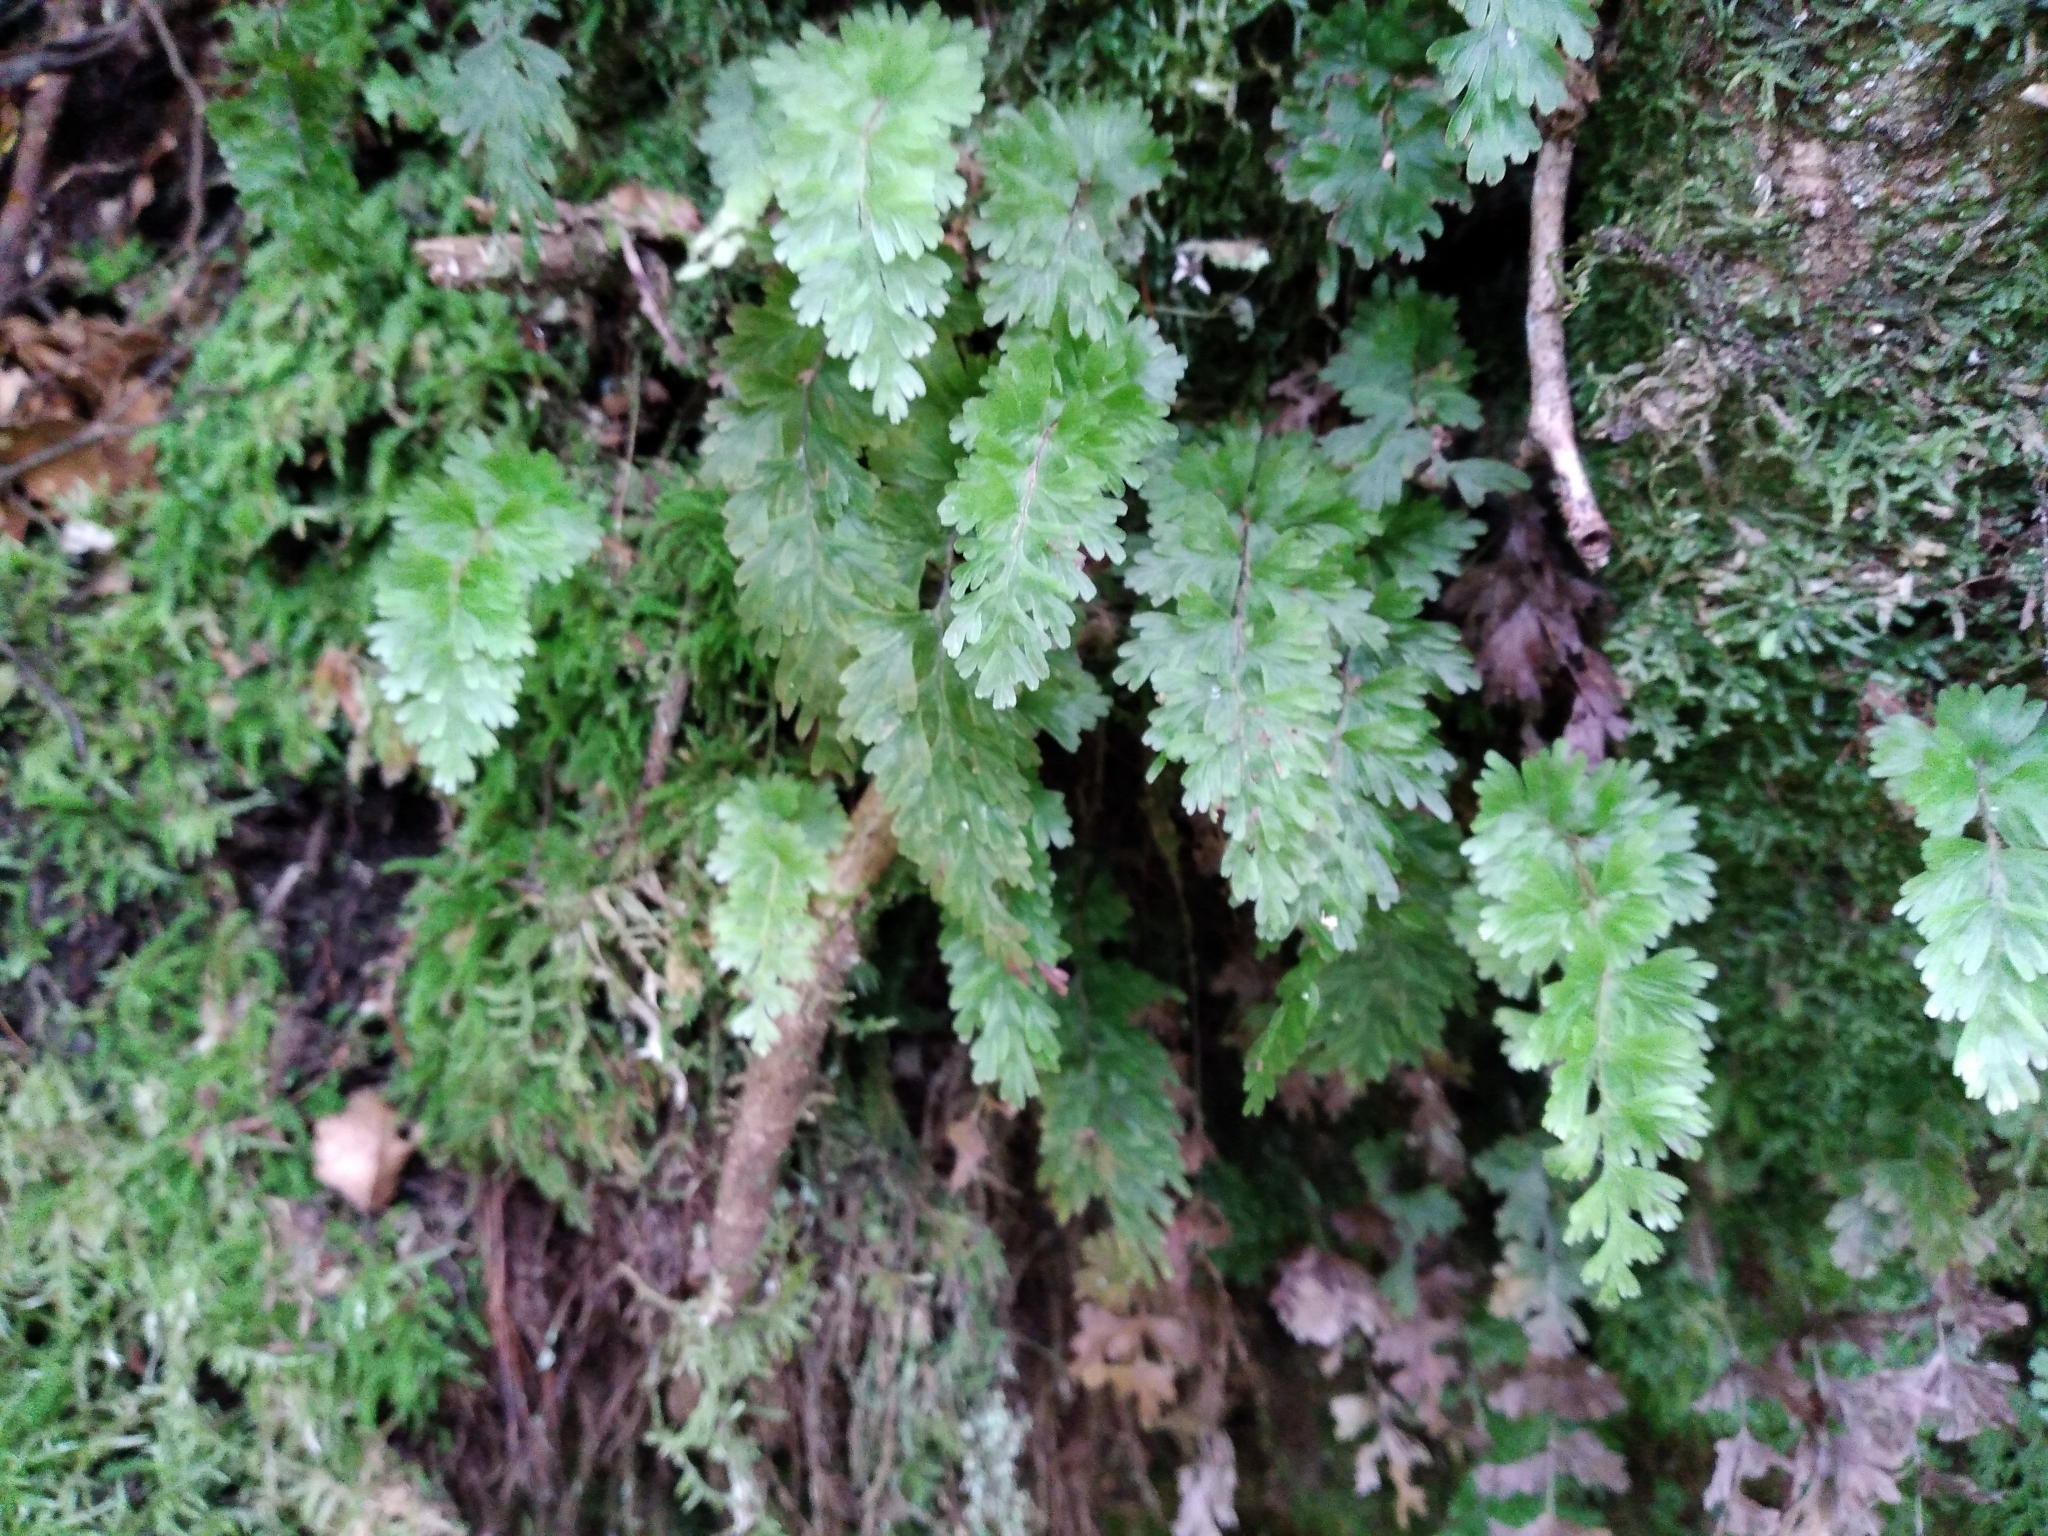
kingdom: Plantae
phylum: Tracheophyta
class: Polypodiopsida
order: Hymenophyllales
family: Hymenophyllaceae
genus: Hymenophyllum
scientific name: Hymenophyllum flabellatum
